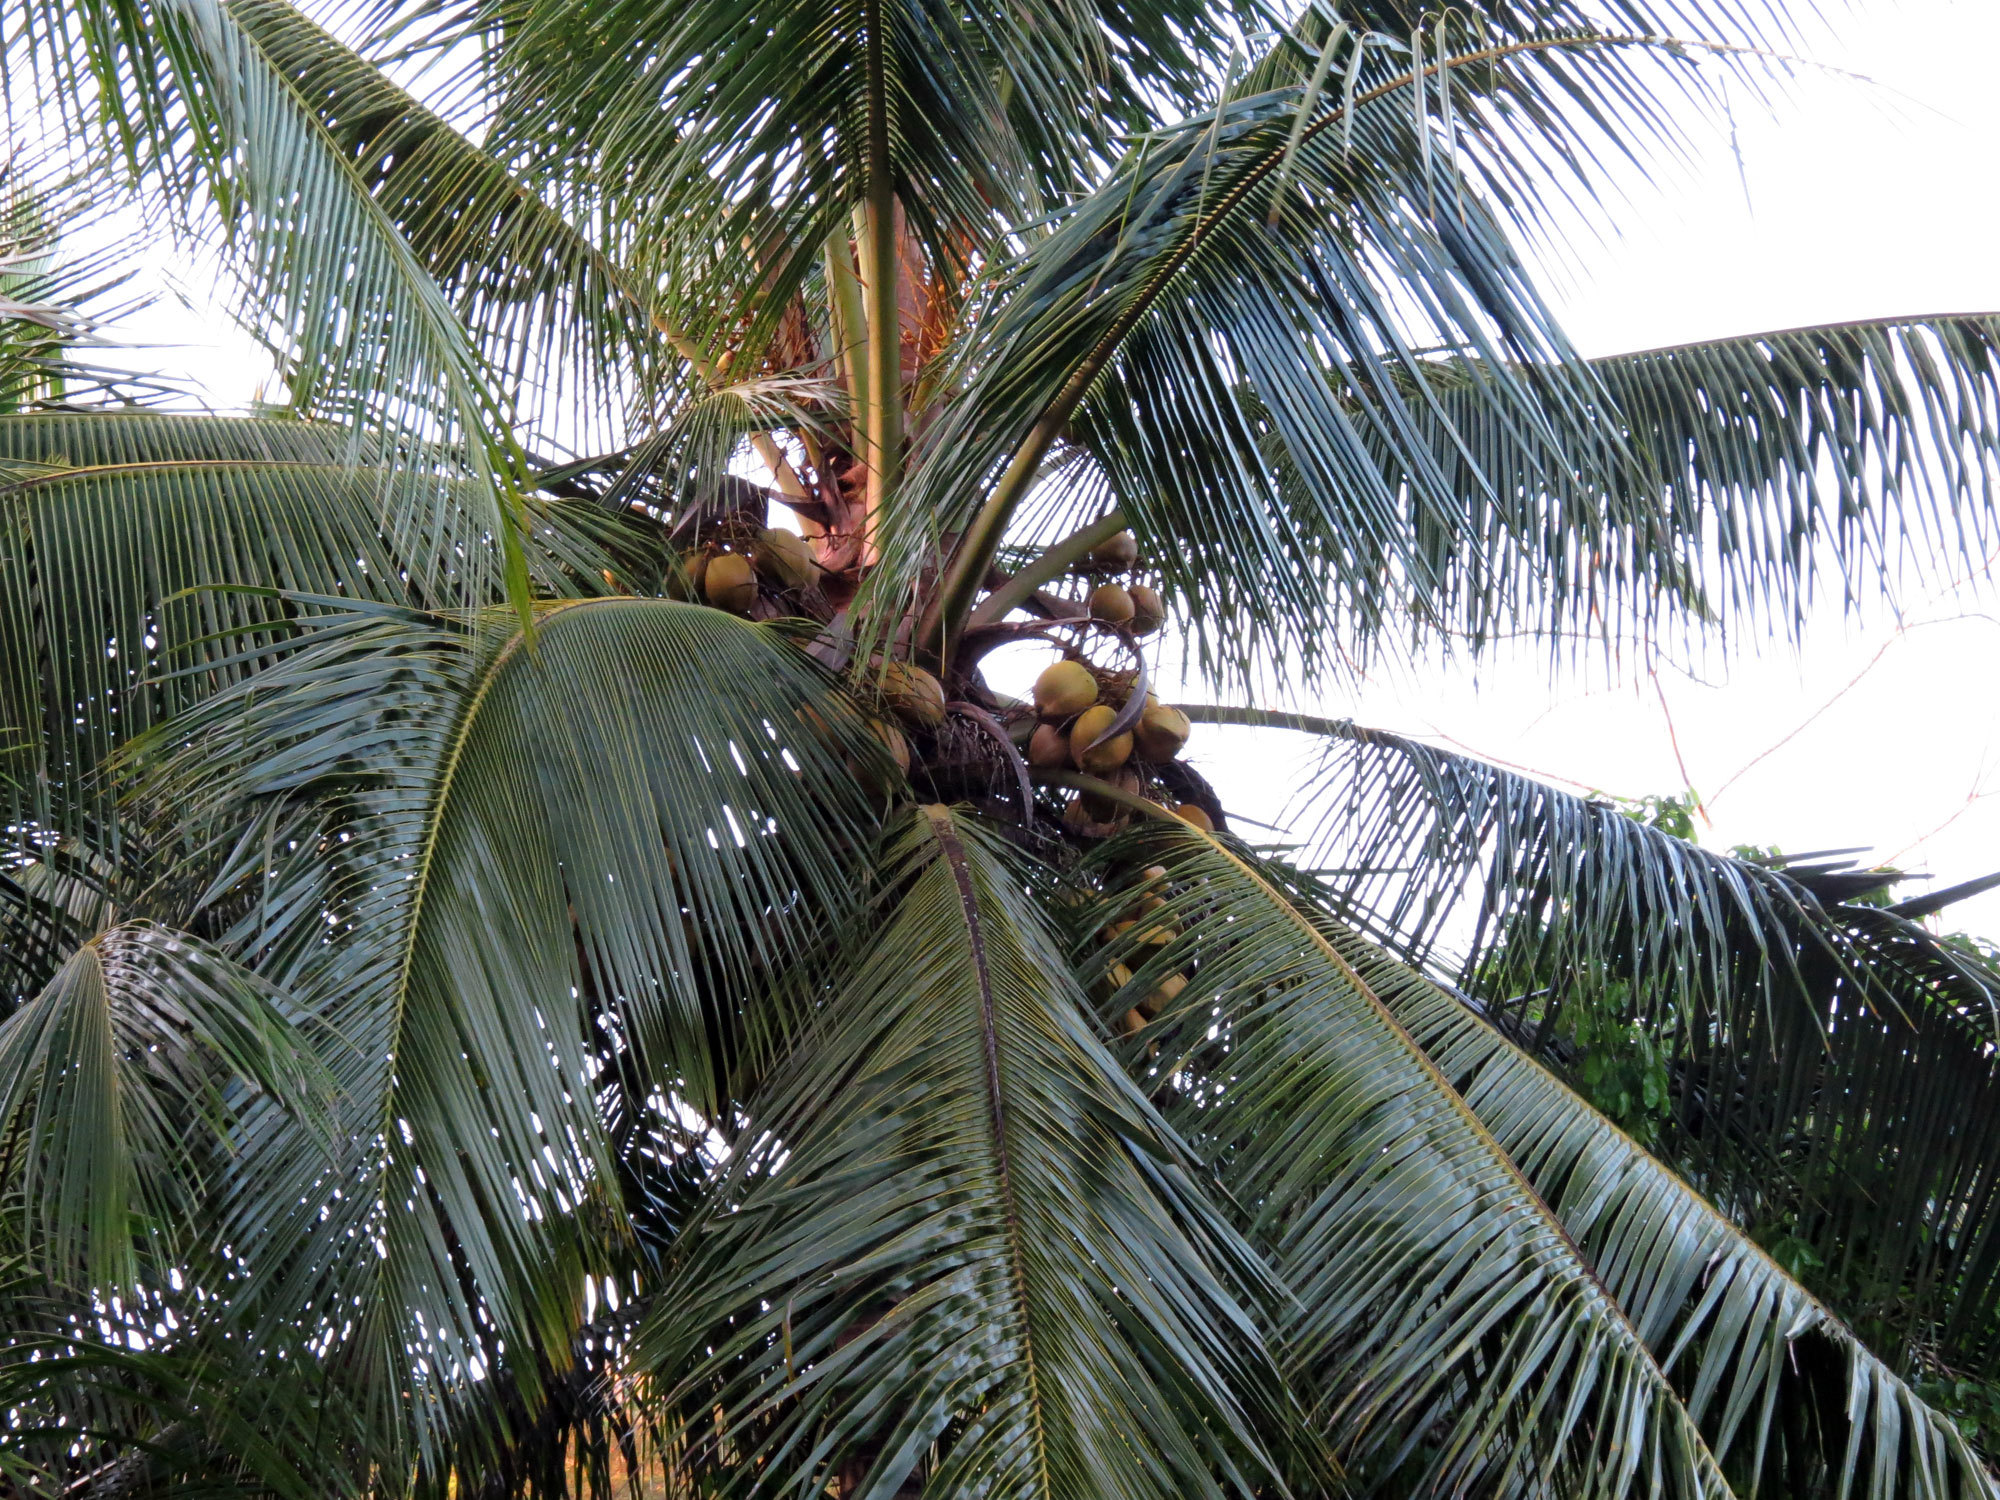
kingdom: Plantae
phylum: Tracheophyta
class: Liliopsida
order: Arecales
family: Arecaceae
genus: Cocos
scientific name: Cocos nucifera
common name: Coconut palm
